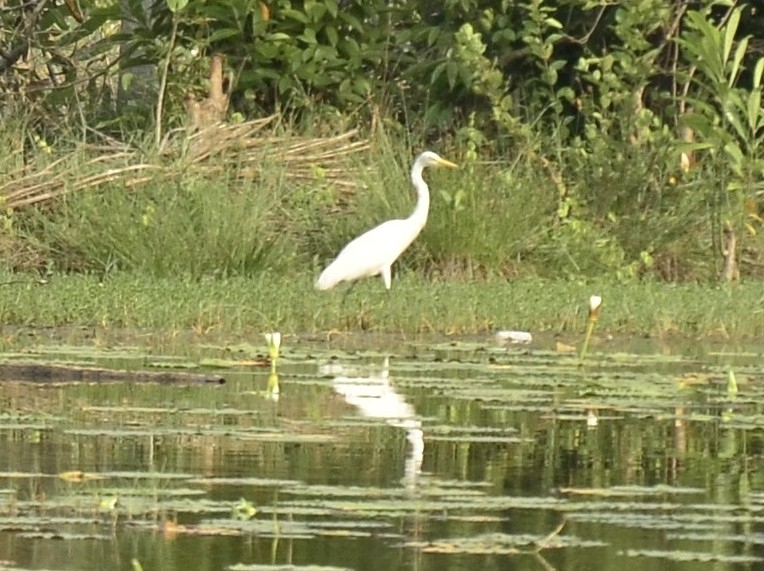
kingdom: Animalia
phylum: Chordata
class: Aves
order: Pelecaniformes
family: Ardeidae
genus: Egretta
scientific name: Egretta intermedia
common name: Intermediate egret
